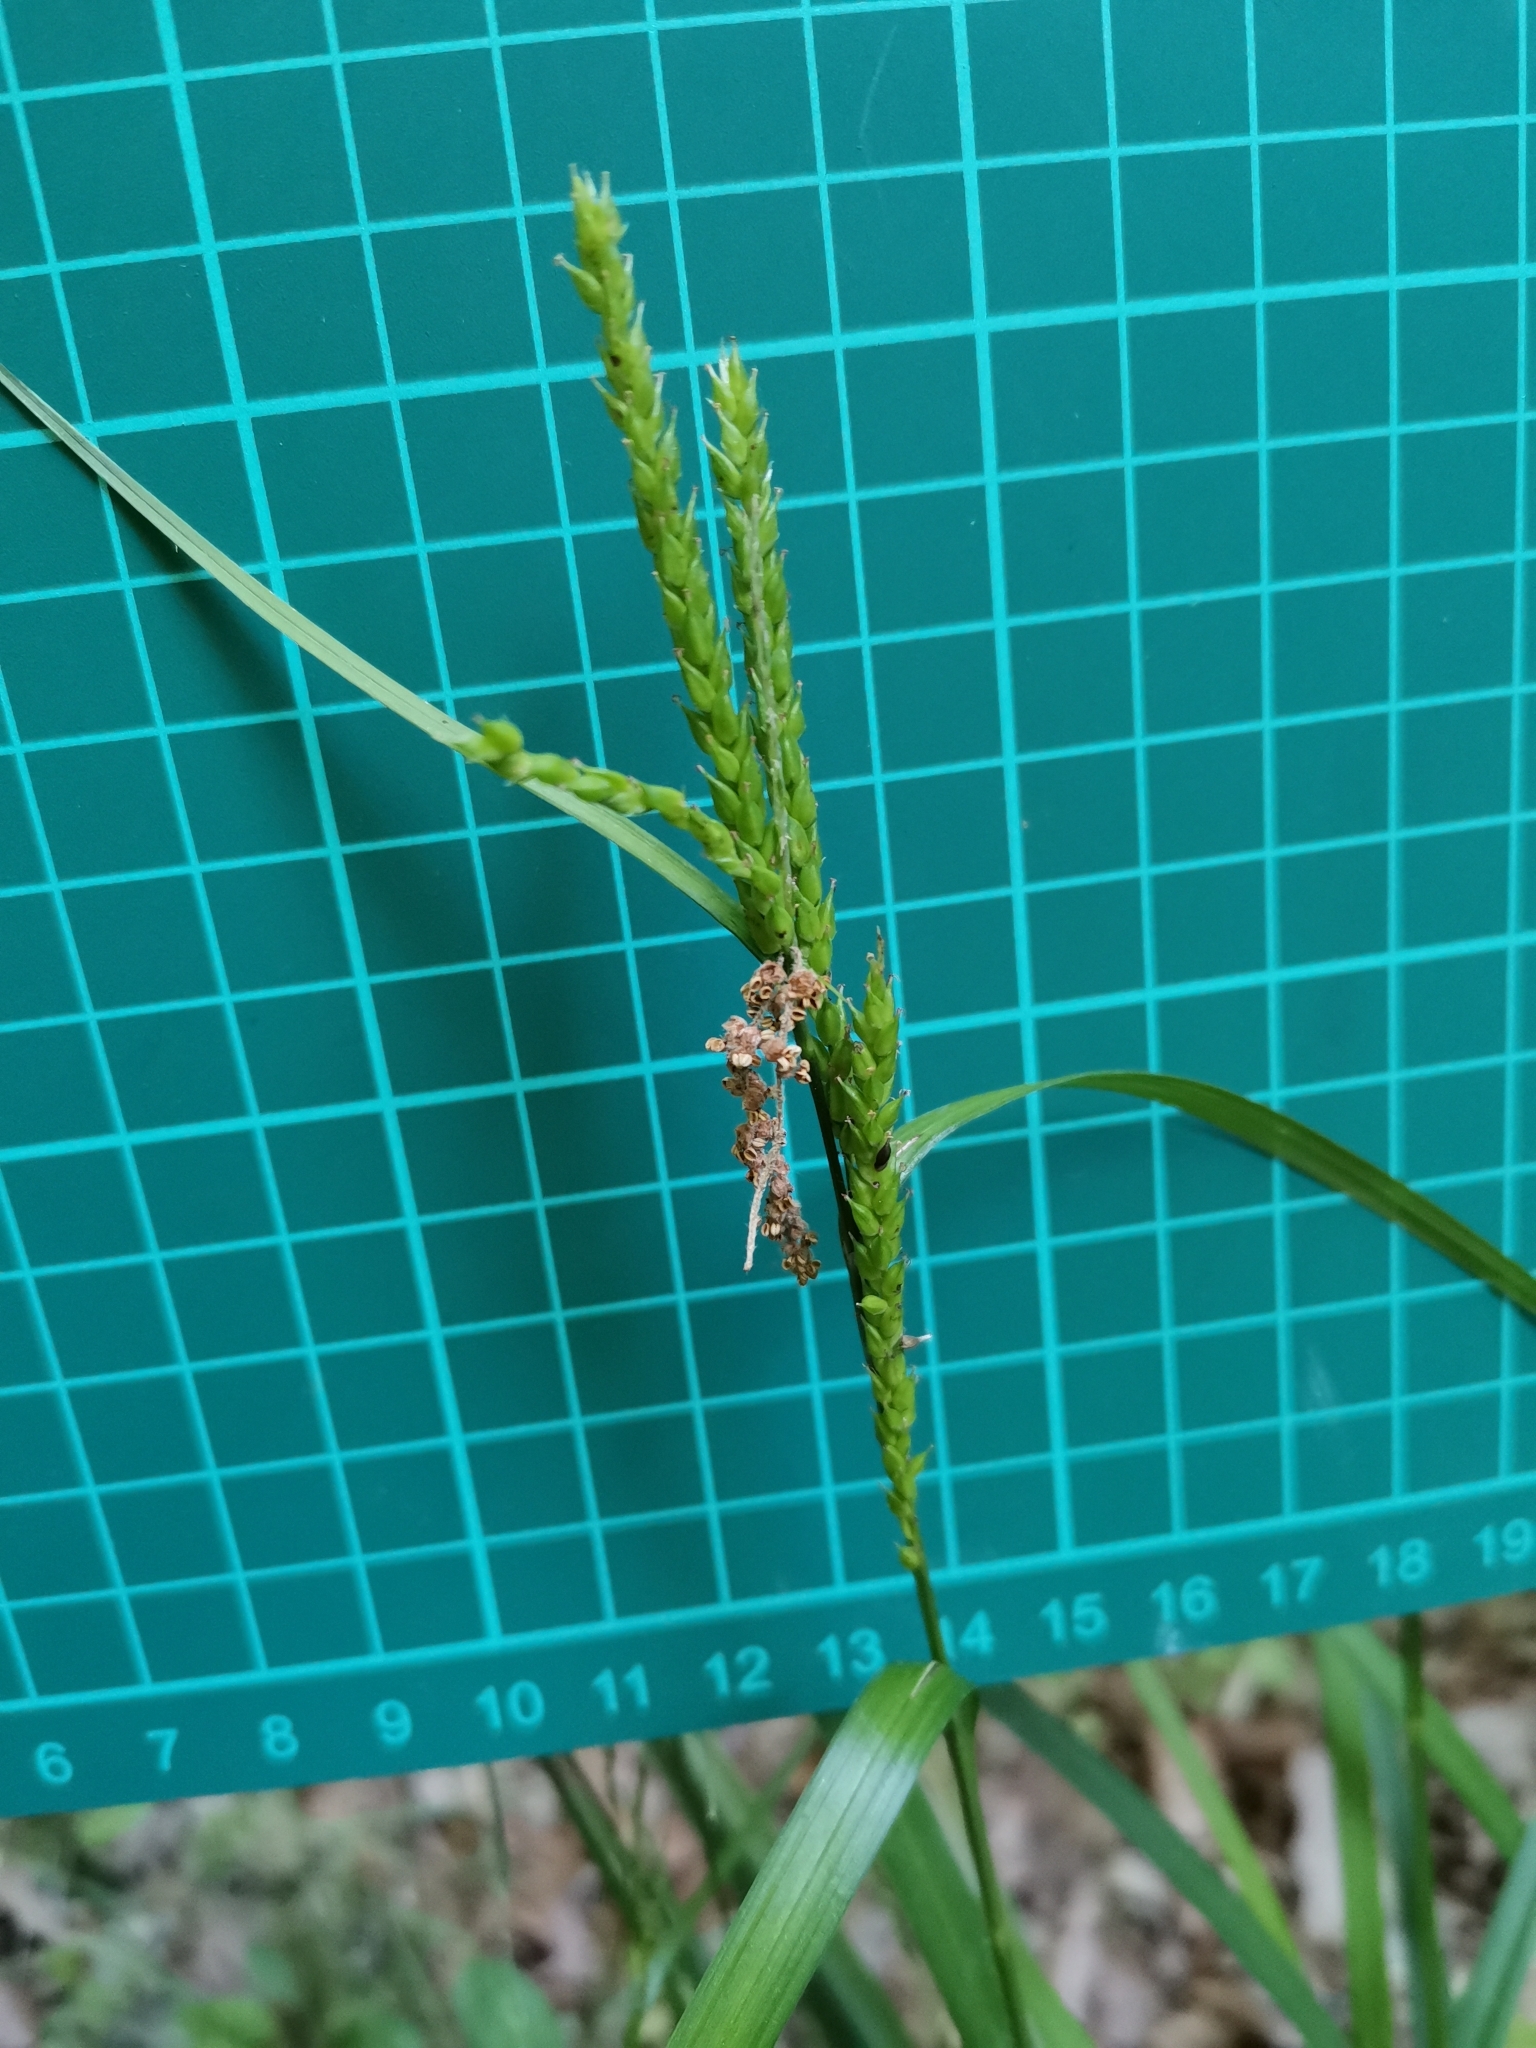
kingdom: Plantae
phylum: Tracheophyta
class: Liliopsida
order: Poales
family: Cyperaceae
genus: Carex
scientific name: Carex ischnostachya
